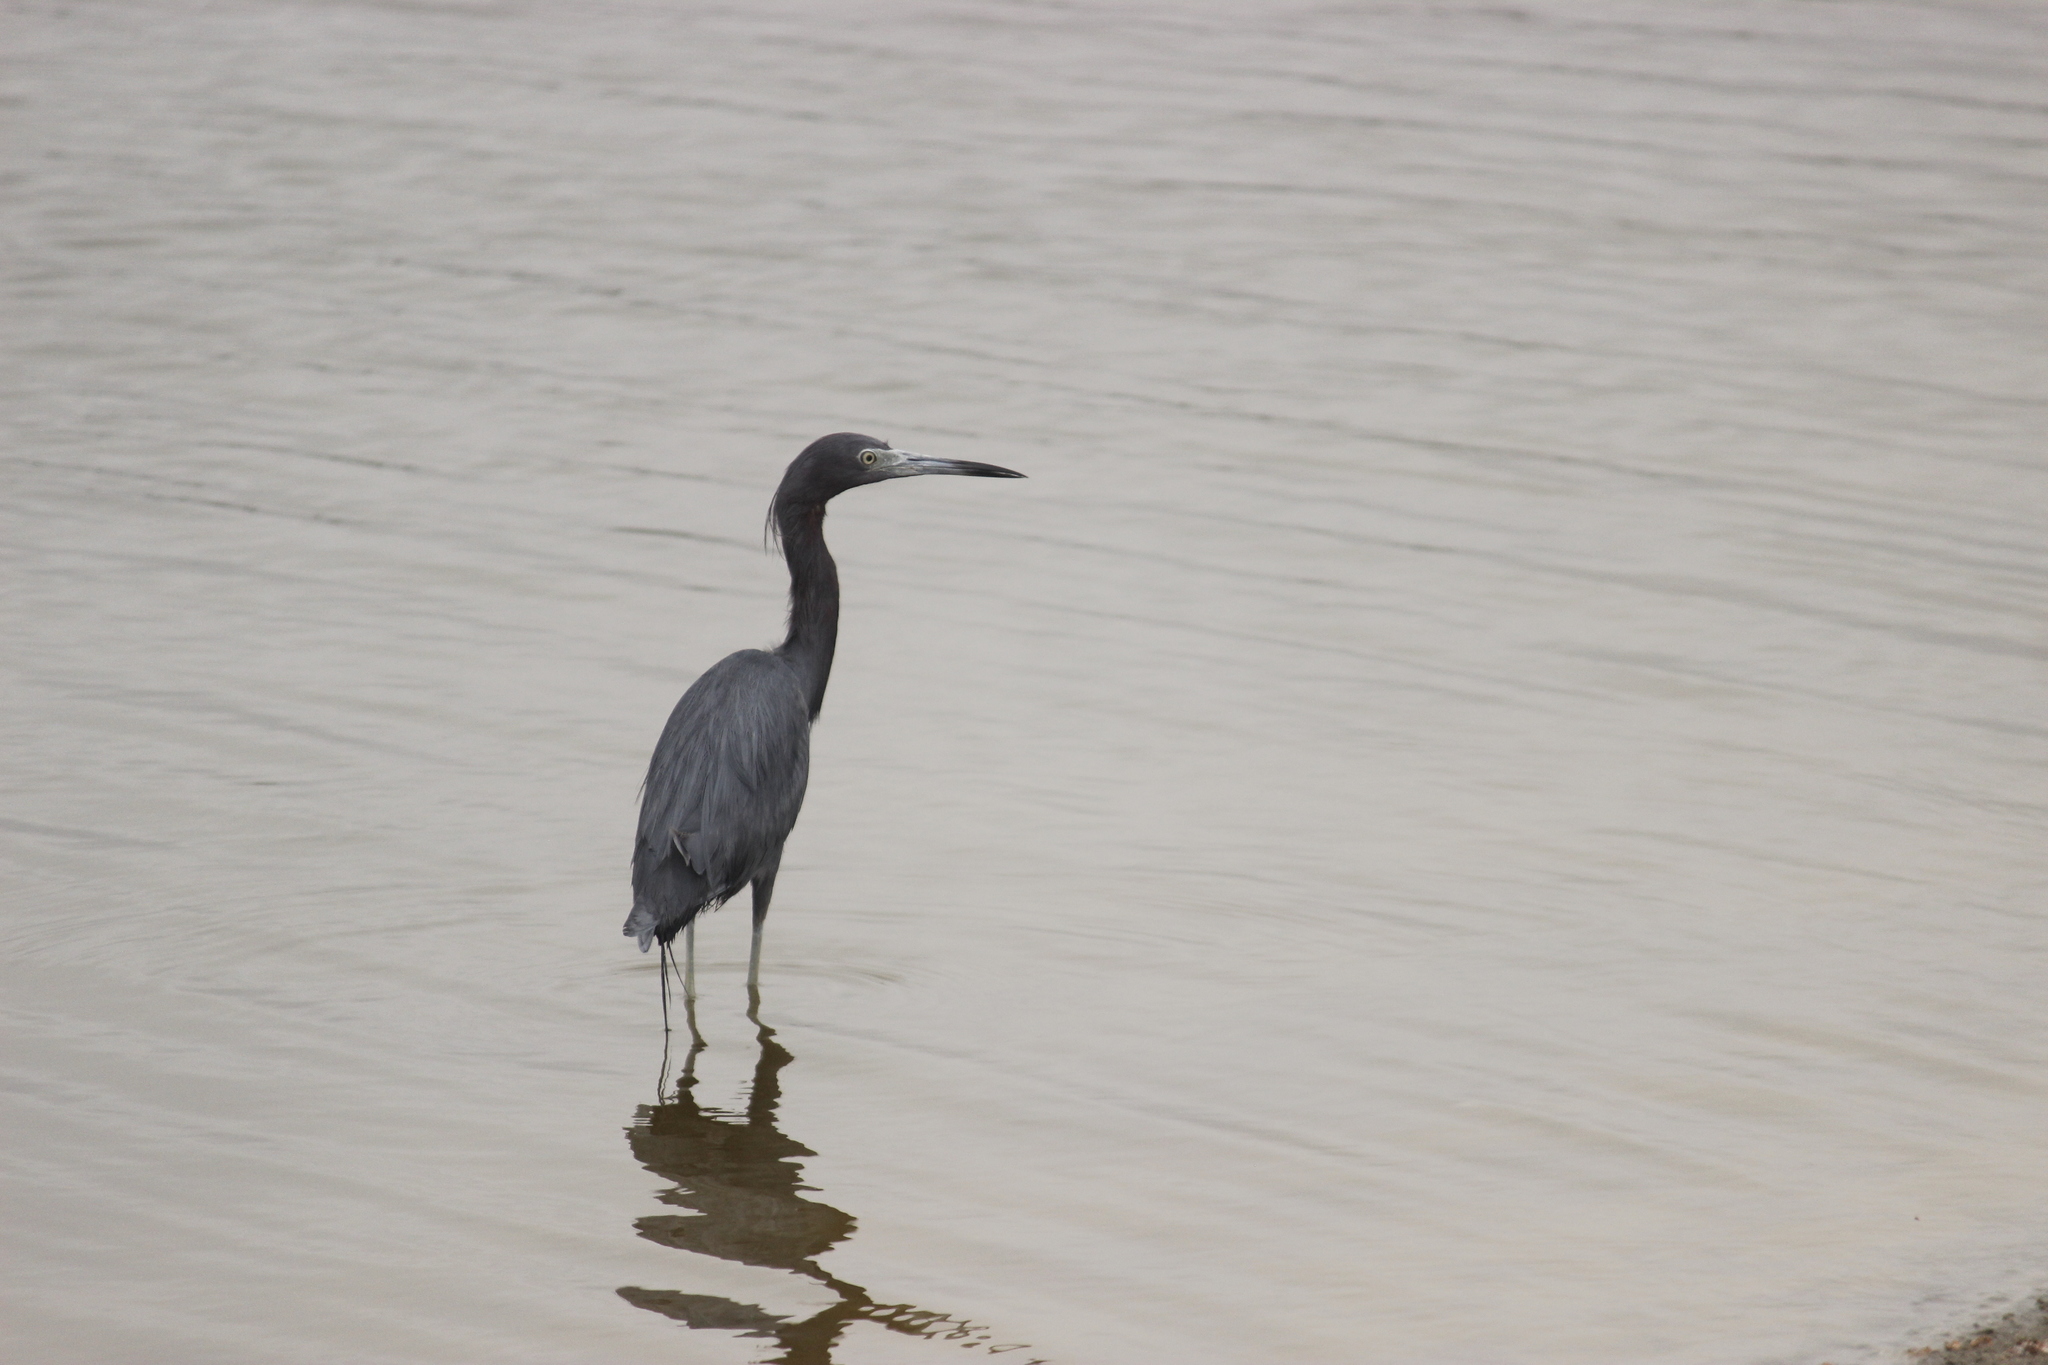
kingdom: Animalia
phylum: Chordata
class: Aves
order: Pelecaniformes
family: Ardeidae
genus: Egretta
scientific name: Egretta caerulea
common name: Little blue heron
